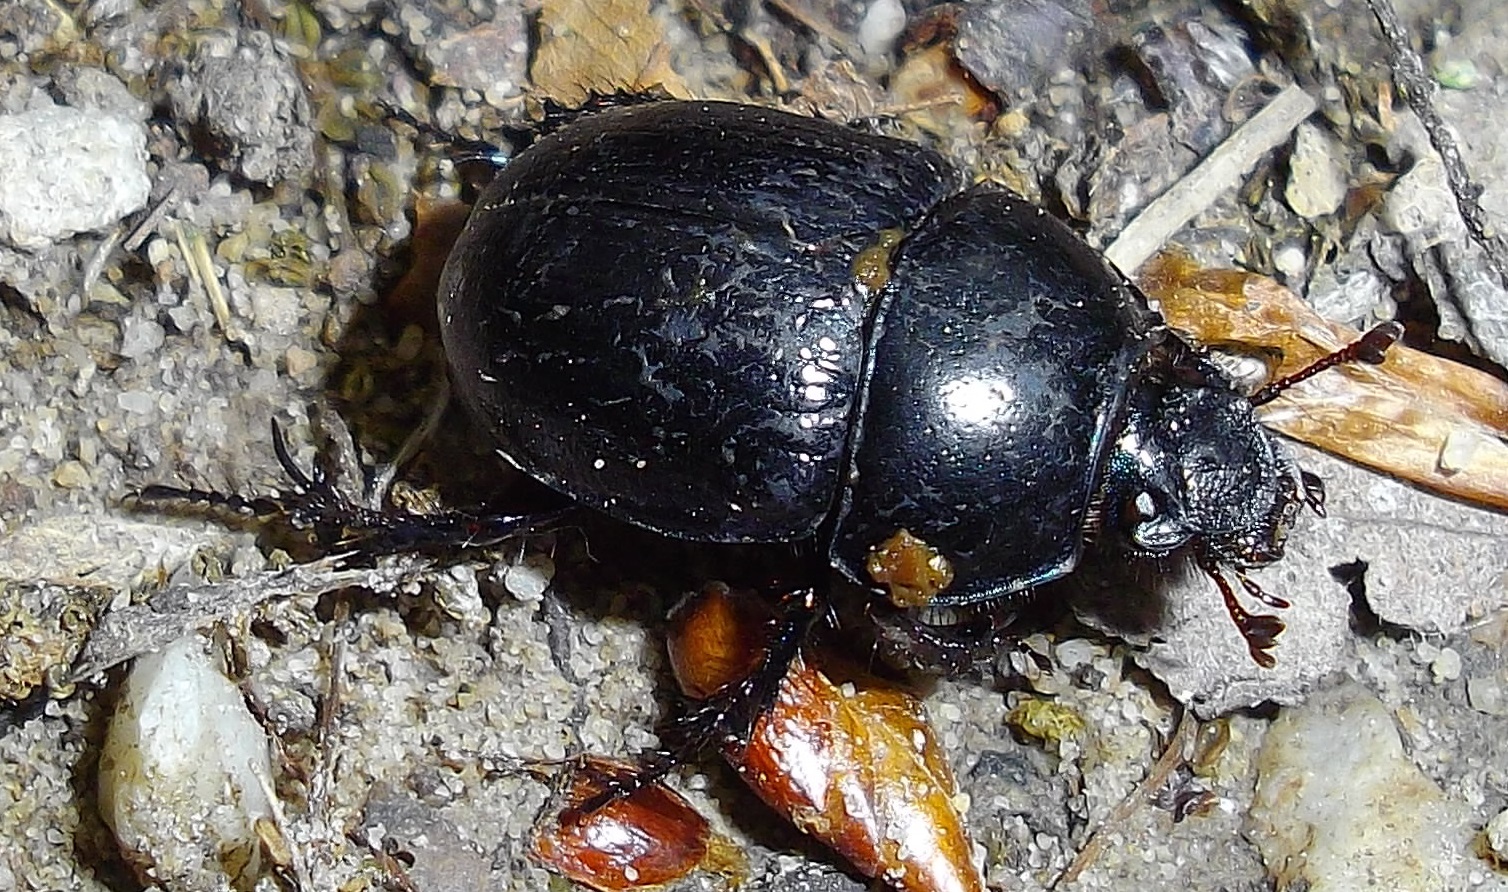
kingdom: Animalia
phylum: Arthropoda
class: Insecta
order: Coleoptera
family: Geotrupidae
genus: Anoplotrupes
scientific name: Anoplotrupes stercorosus
